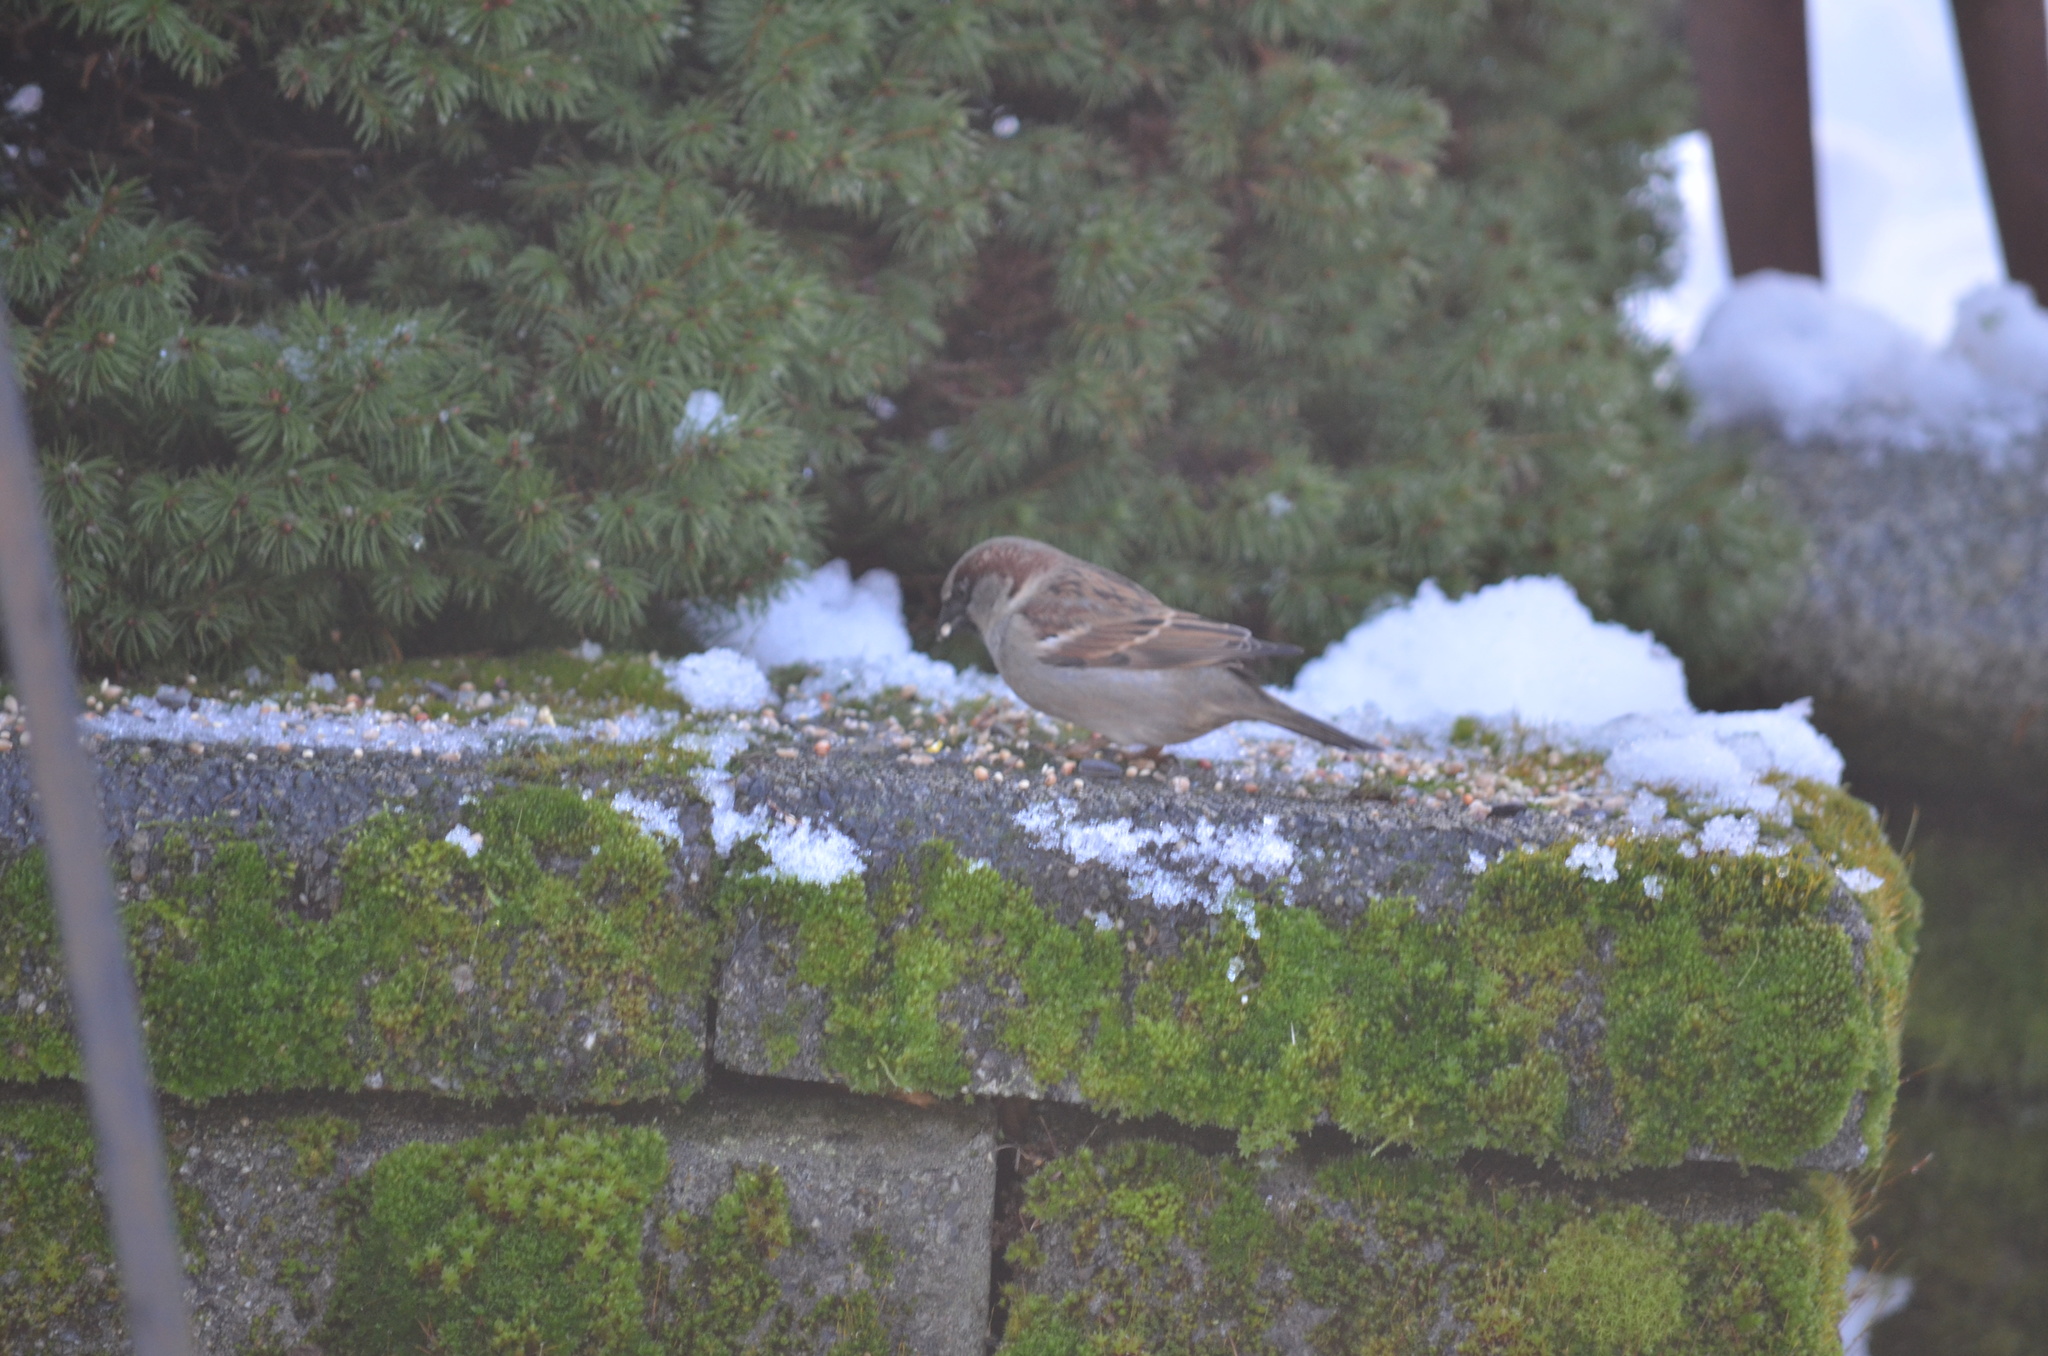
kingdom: Animalia
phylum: Chordata
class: Aves
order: Passeriformes
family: Passeridae
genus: Passer
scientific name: Passer domesticus
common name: House sparrow
